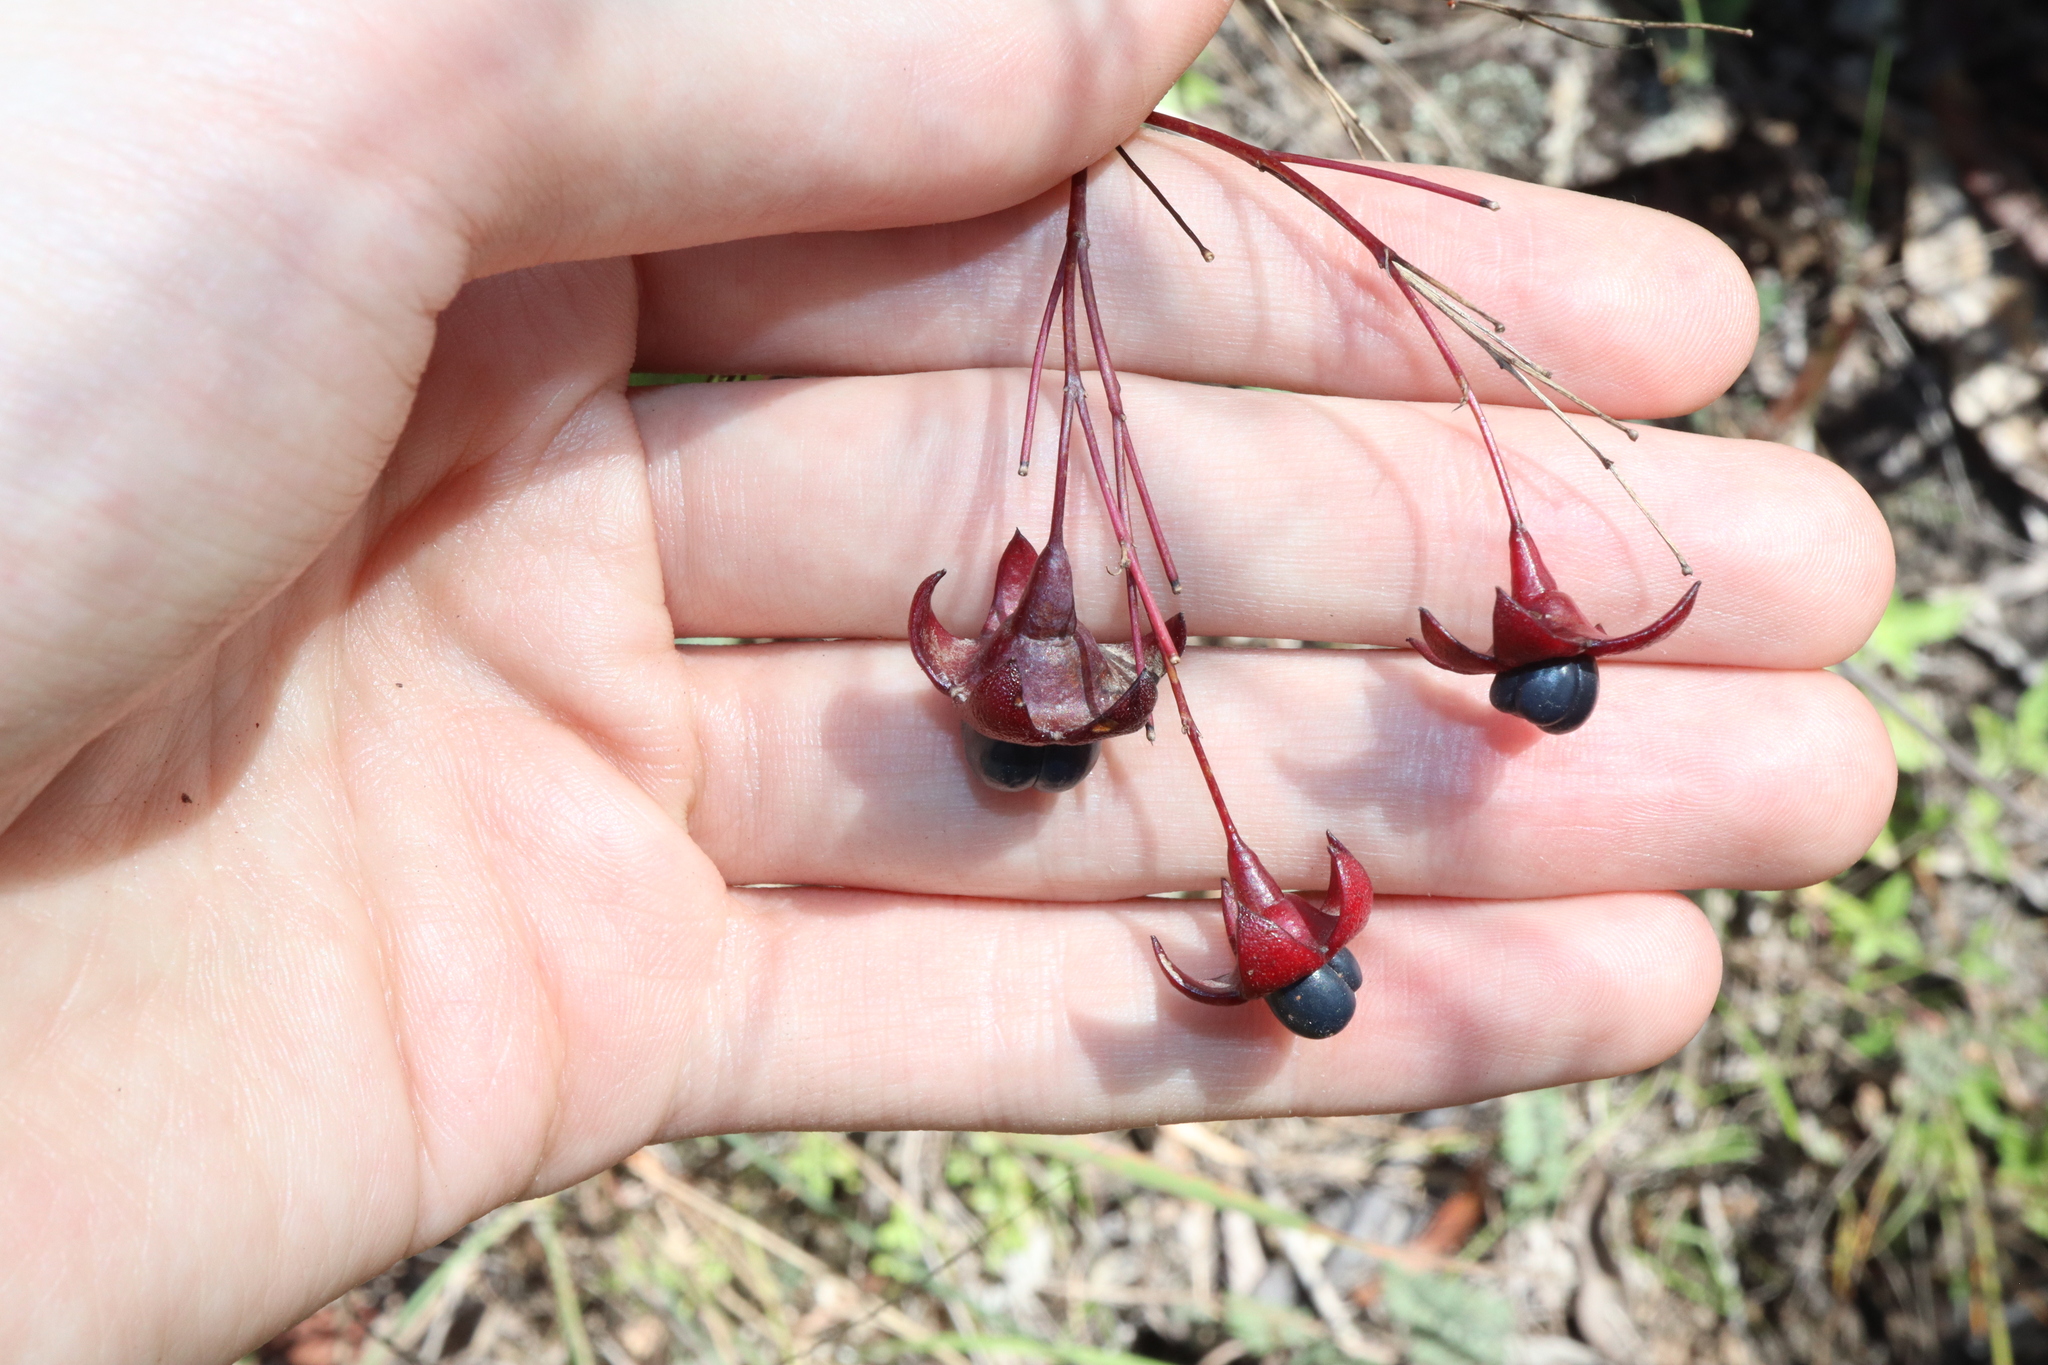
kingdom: Plantae
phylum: Tracheophyta
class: Magnoliopsida
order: Lamiales
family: Lamiaceae
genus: Clerodendrum
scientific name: Clerodendrum floribundum
